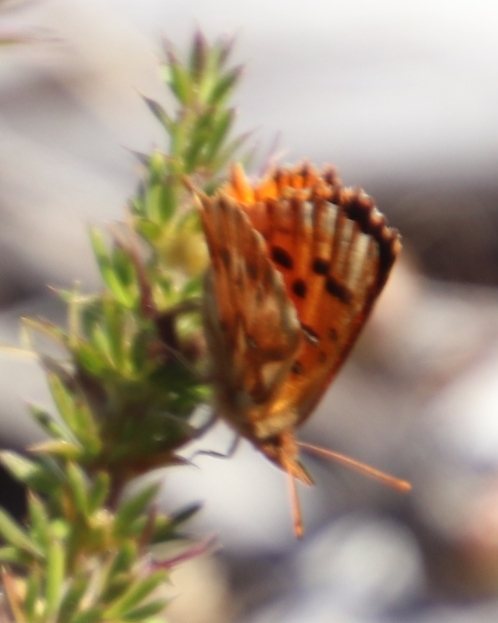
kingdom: Animalia
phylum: Arthropoda
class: Insecta
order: Lepidoptera
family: Lycaenidae
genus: Chrysoritis
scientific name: Chrysoritis
